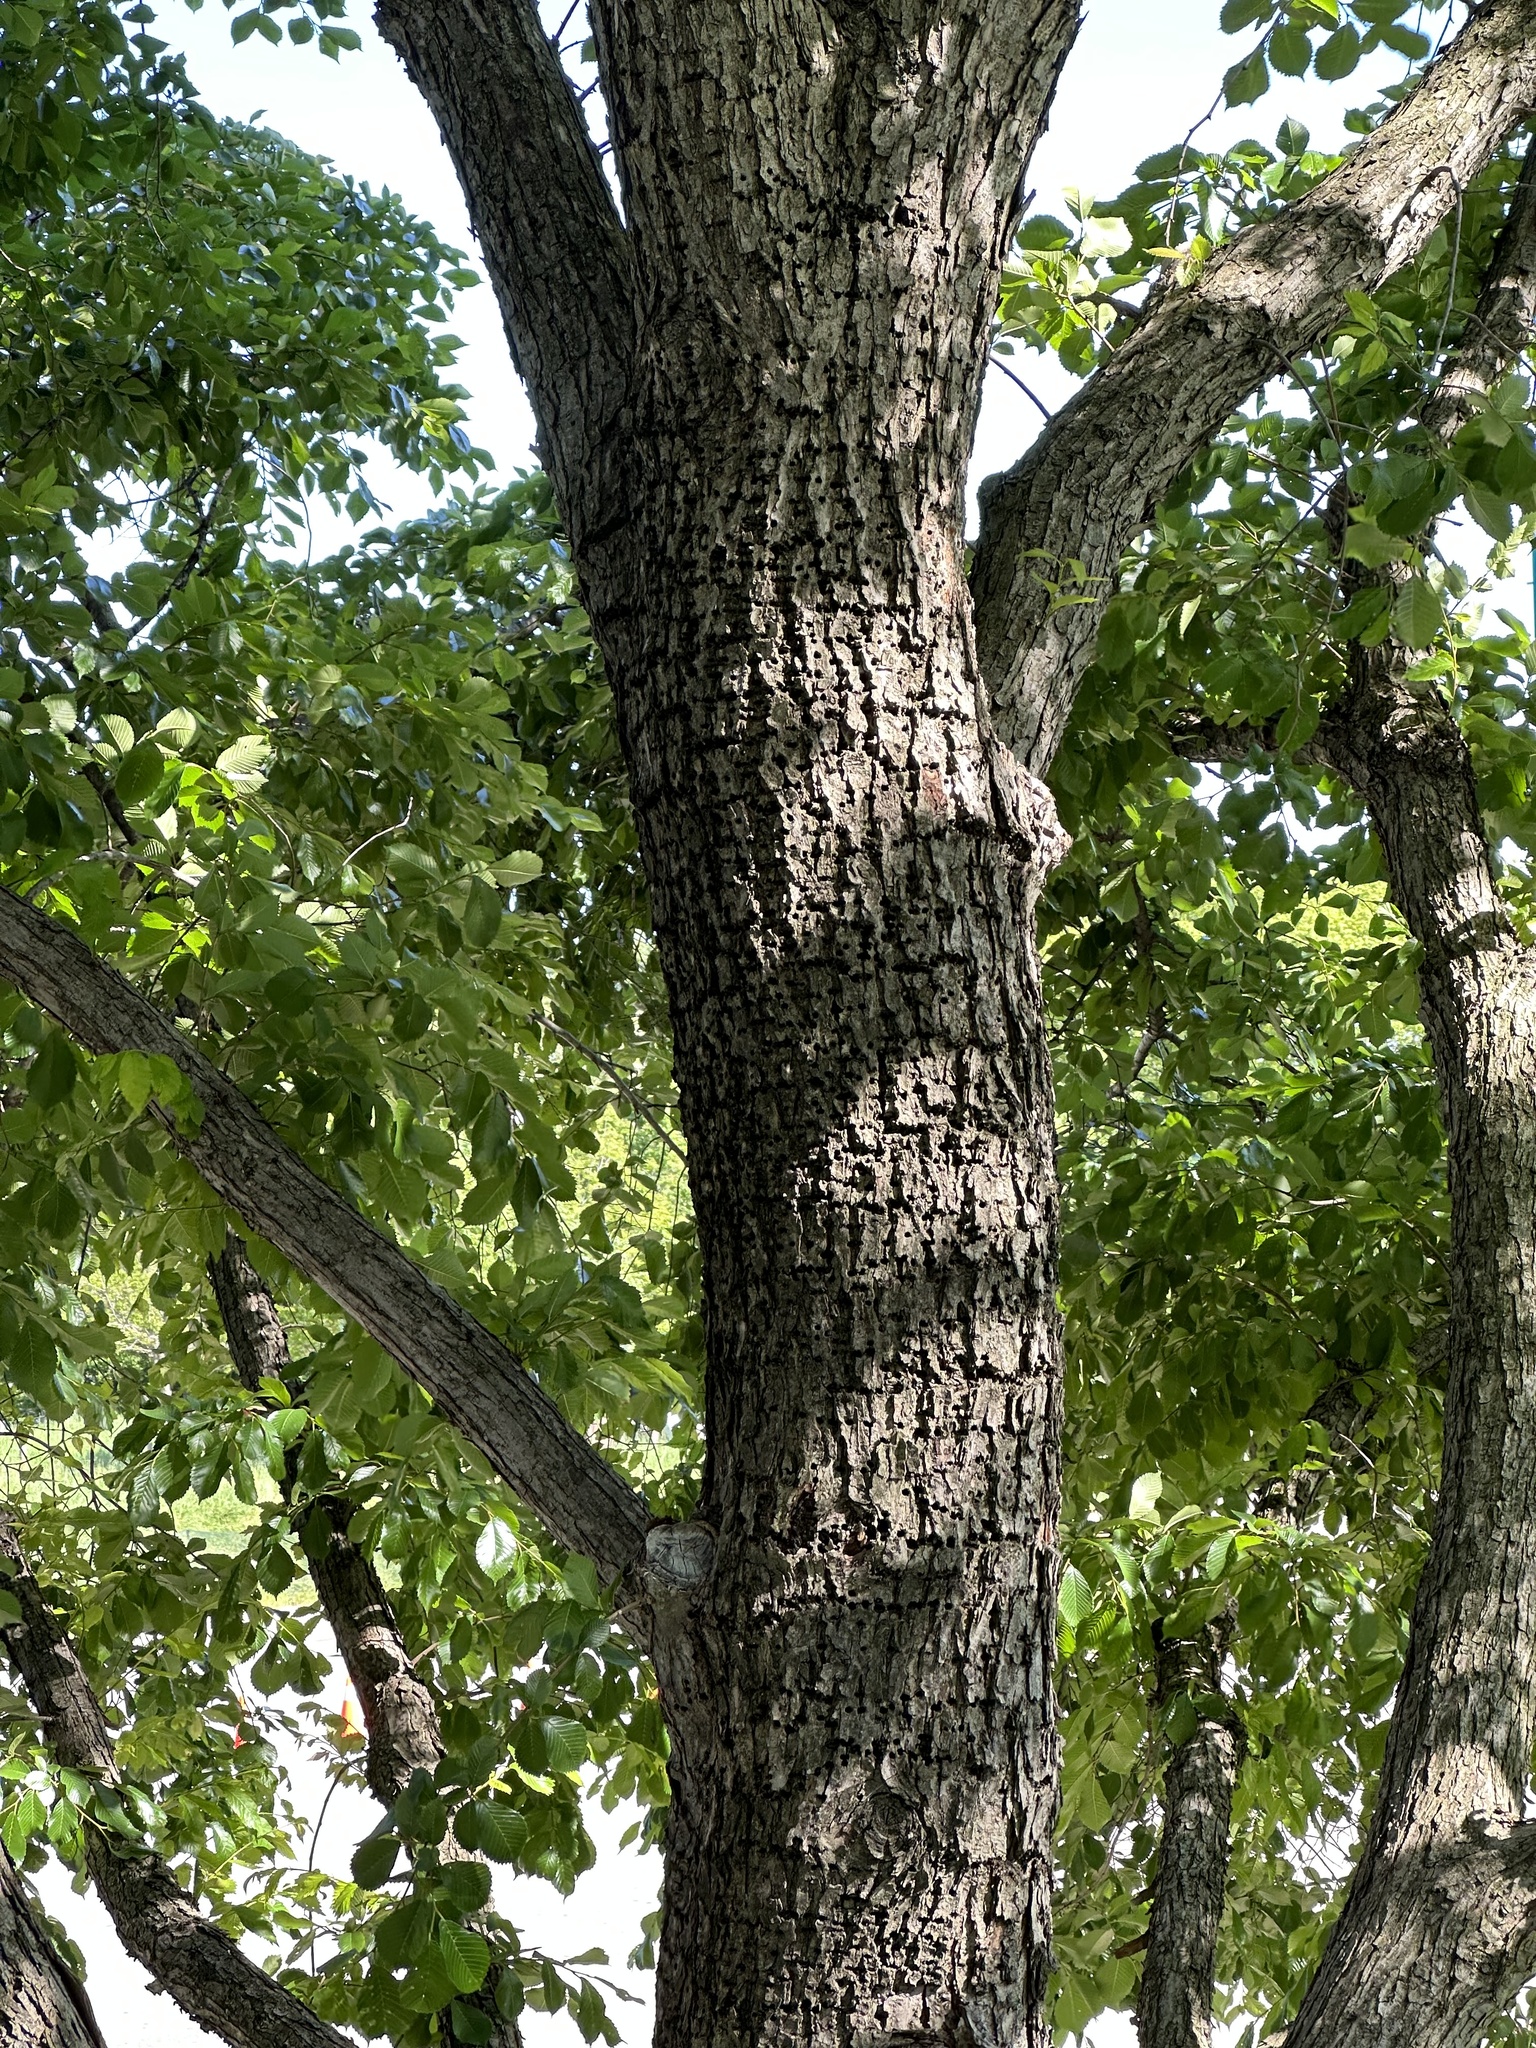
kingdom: Animalia
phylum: Chordata
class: Aves
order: Piciformes
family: Picidae
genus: Sphyrapicus
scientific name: Sphyrapicus varius
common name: Yellow-bellied sapsucker
